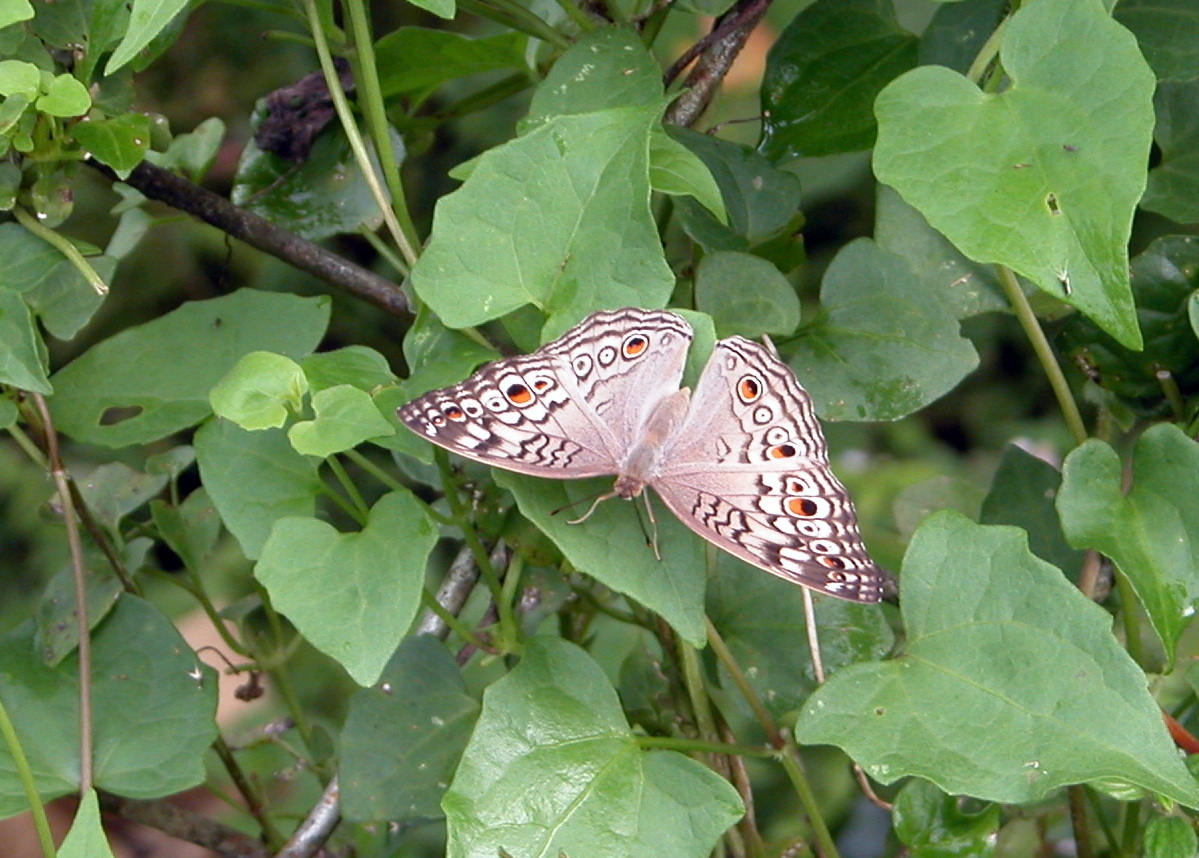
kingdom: Animalia
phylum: Arthropoda
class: Insecta
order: Lepidoptera
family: Nymphalidae
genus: Junonia
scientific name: Junonia atlites
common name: Grey pansy
